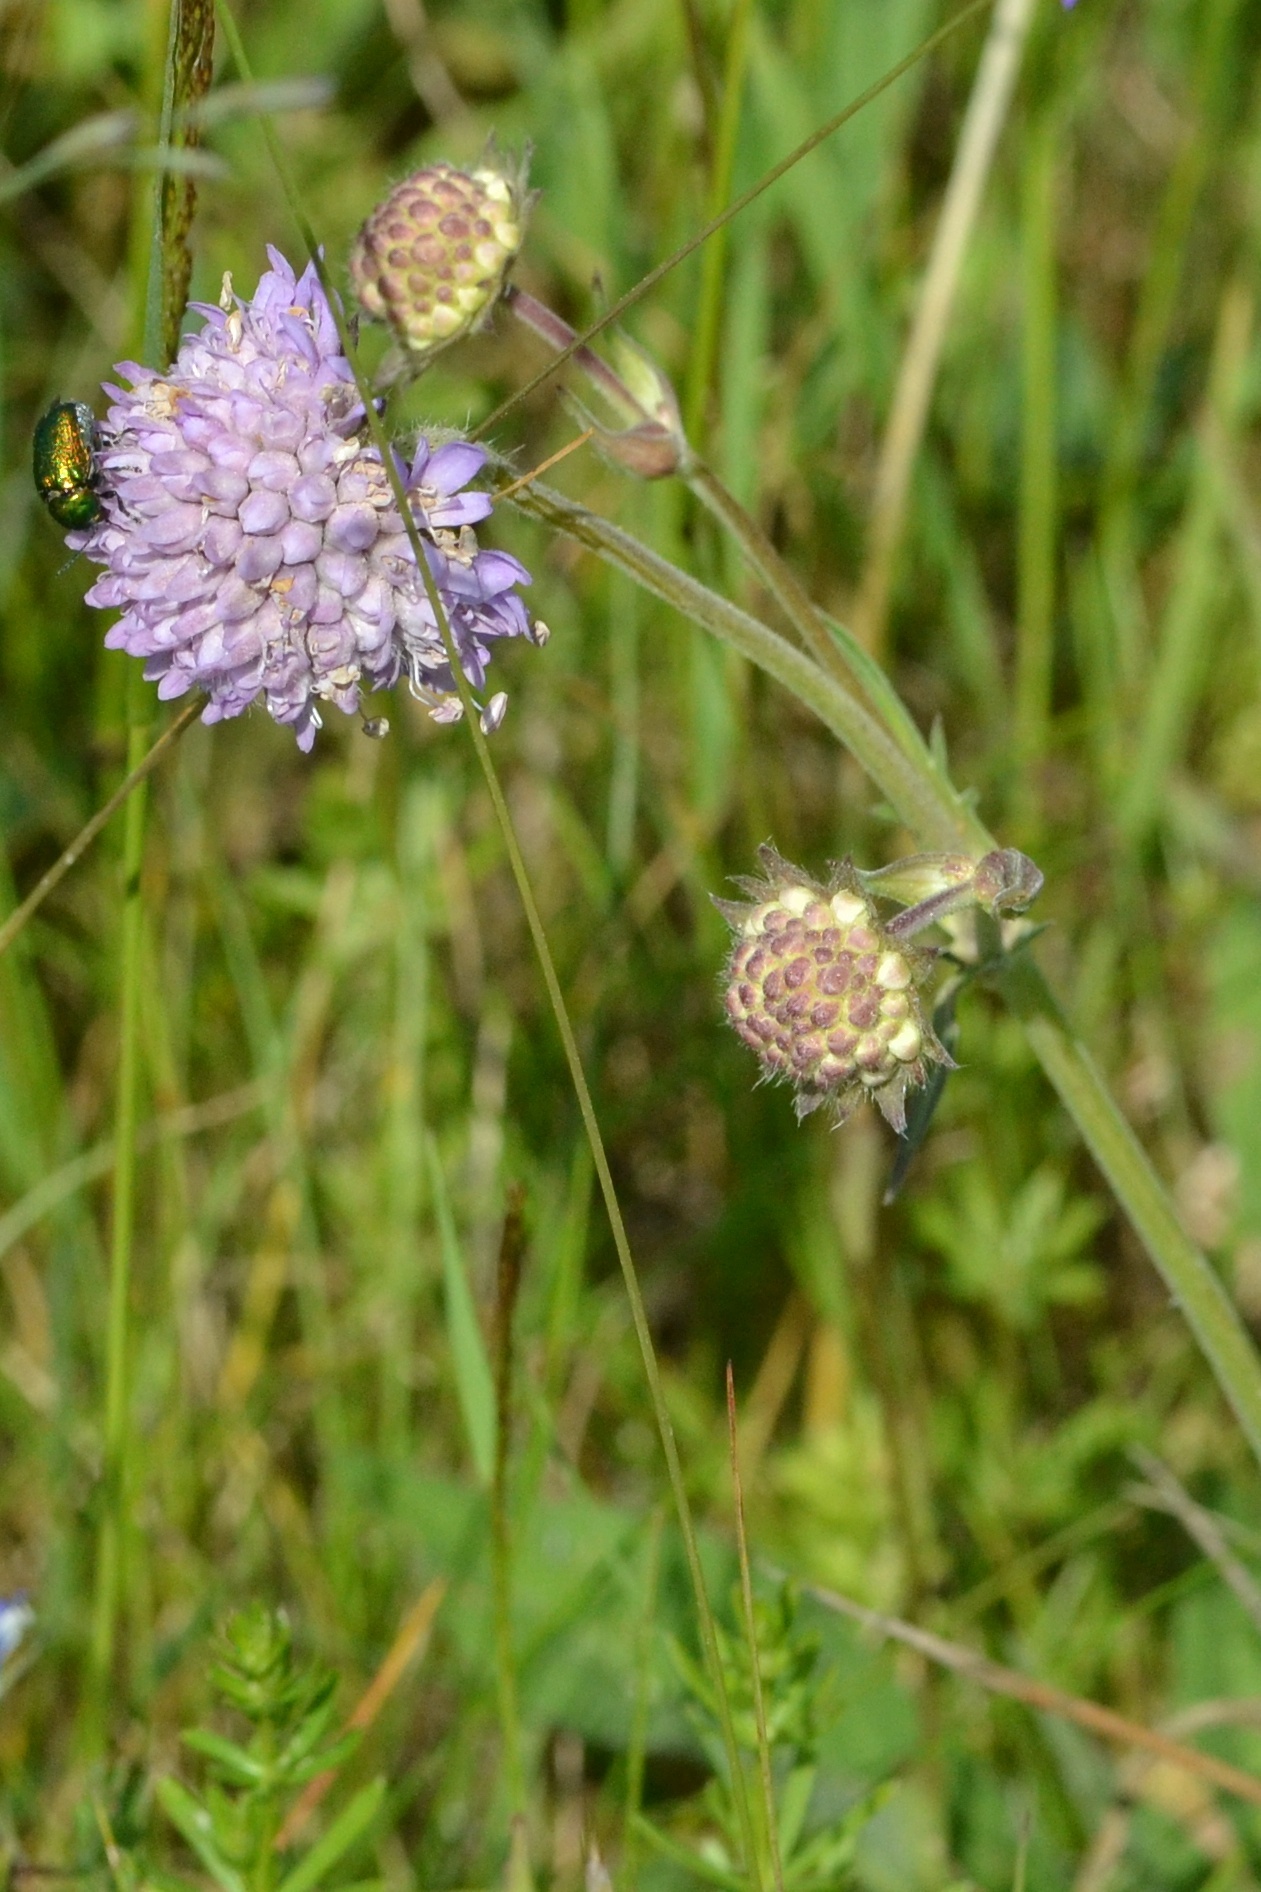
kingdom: Plantae
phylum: Tracheophyta
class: Magnoliopsida
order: Dipsacales
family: Caprifoliaceae
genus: Knautia
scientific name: Knautia arvensis
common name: Field scabiosa
